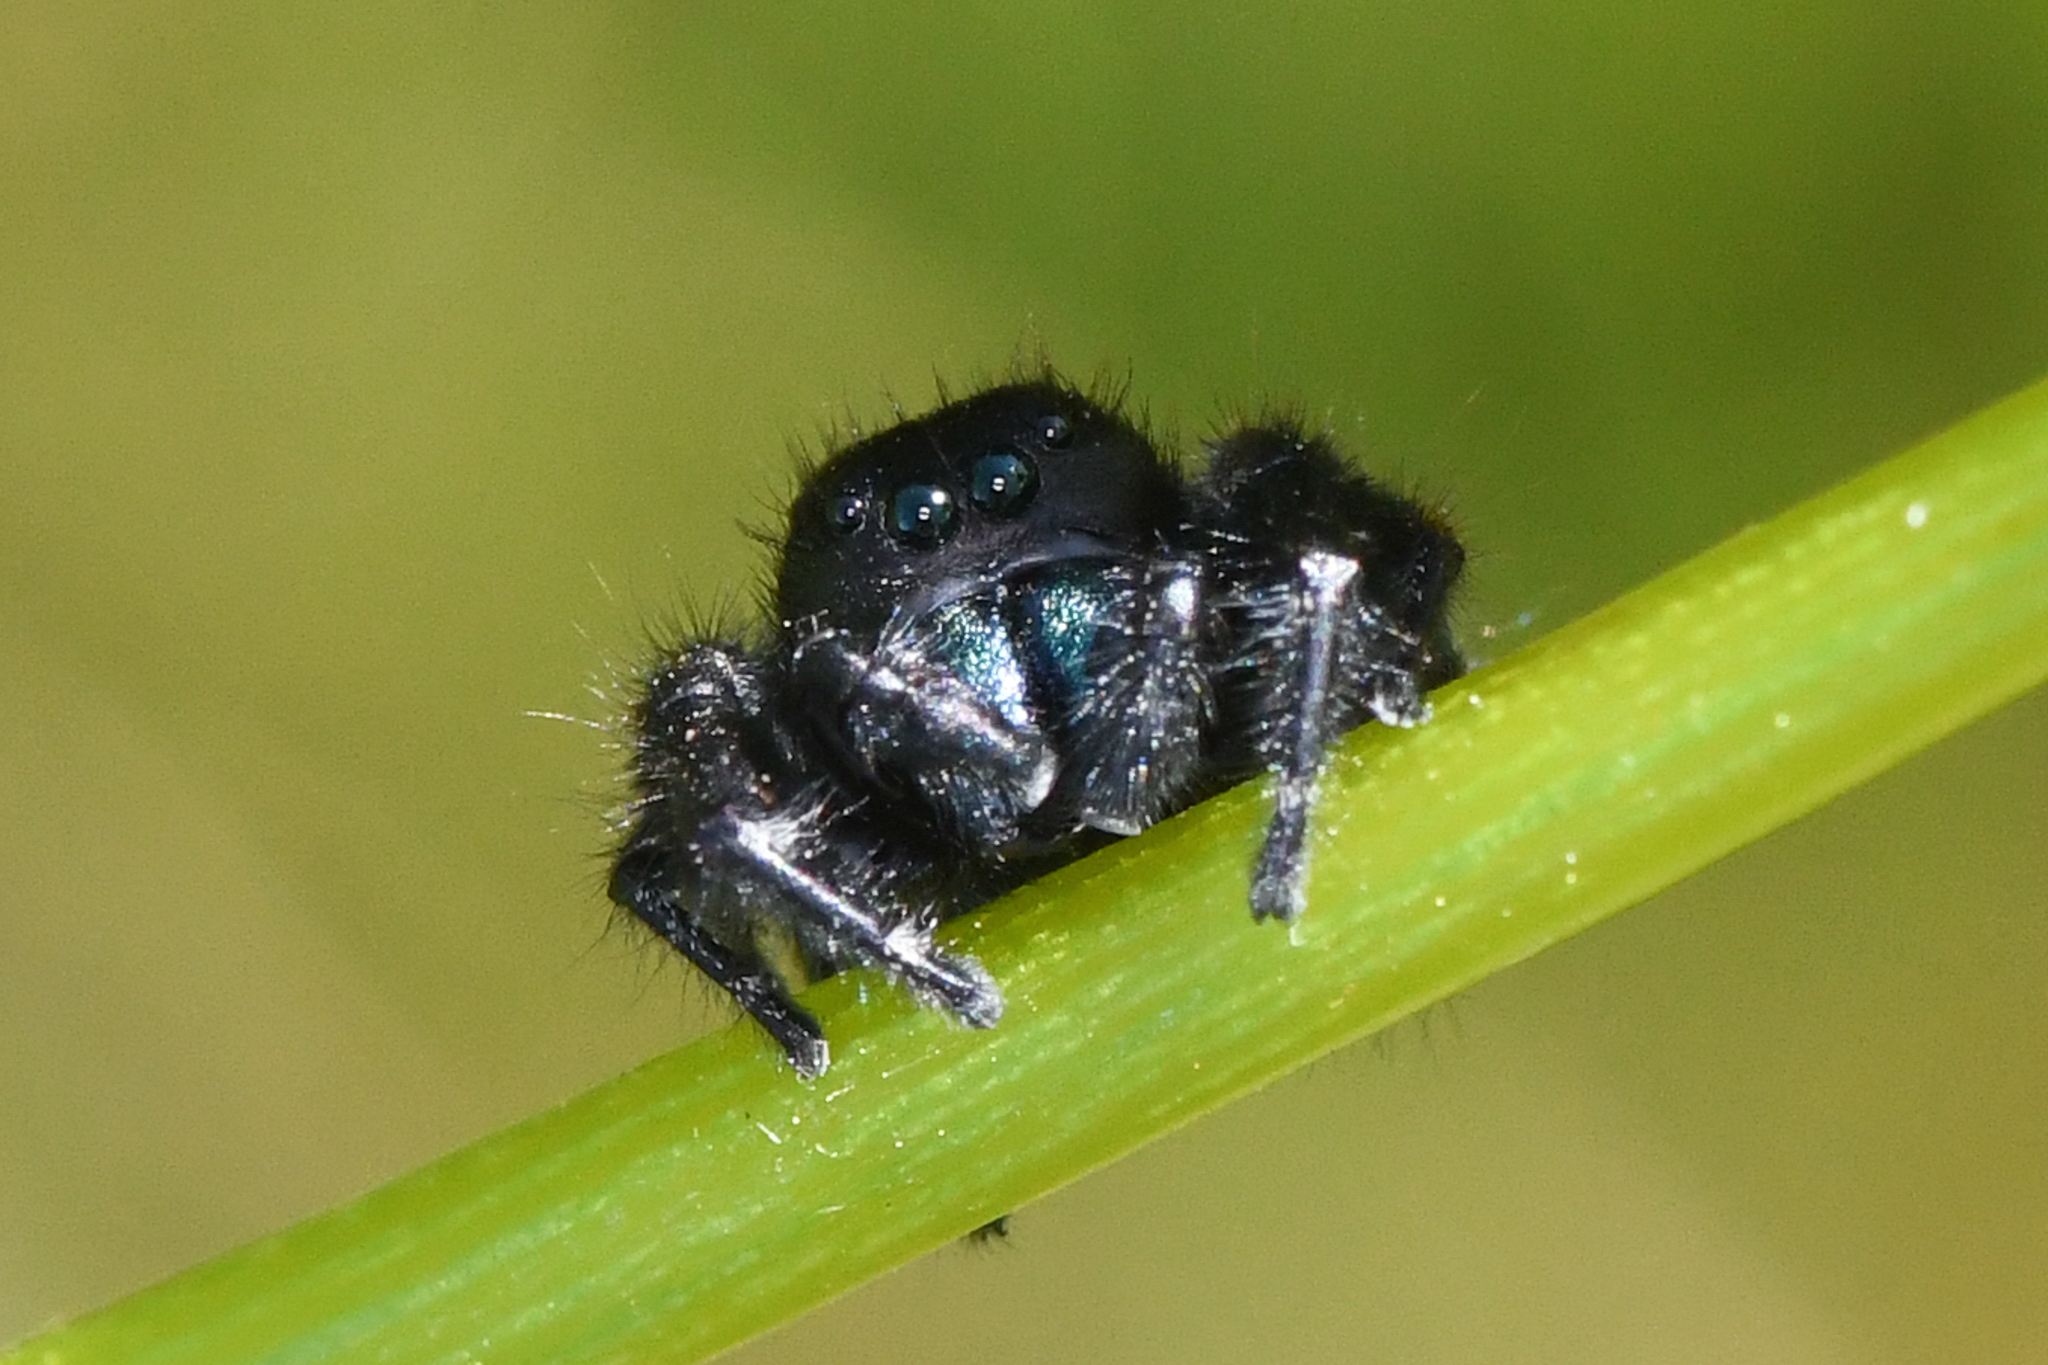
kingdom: Animalia
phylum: Arthropoda
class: Arachnida
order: Araneae
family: Salticidae
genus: Phidippus
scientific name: Phidippus johnsoni
